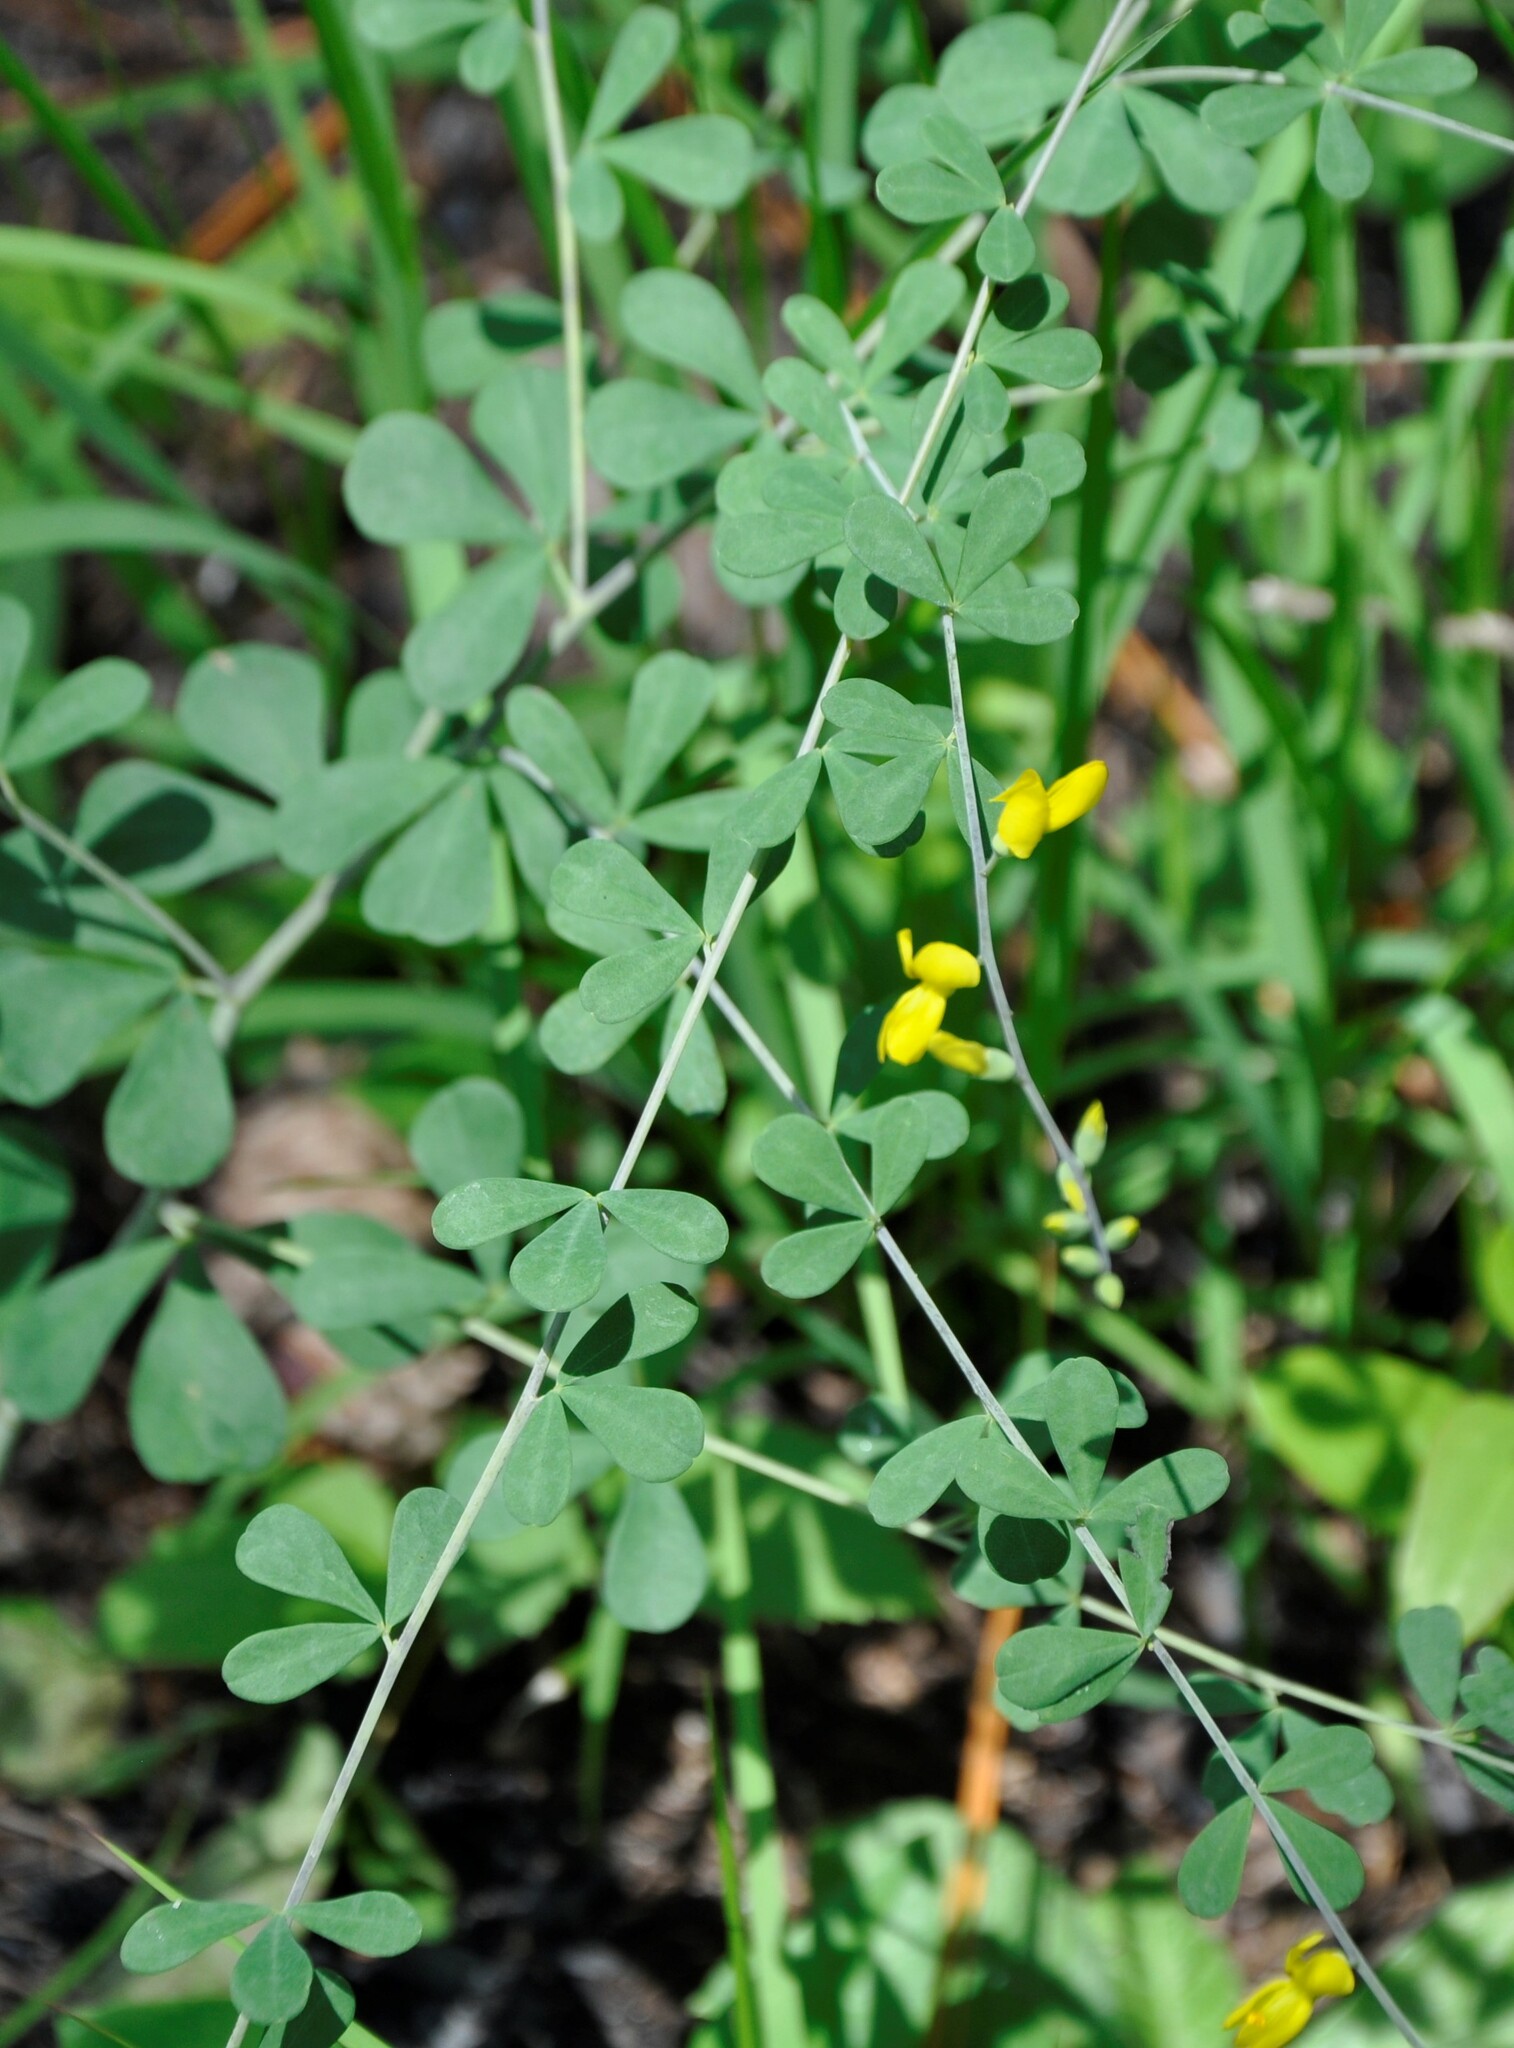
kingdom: Plantae
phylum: Tracheophyta
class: Magnoliopsida
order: Fabales
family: Fabaceae
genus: Baptisia
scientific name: Baptisia tinctoria
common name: Wild indigo
